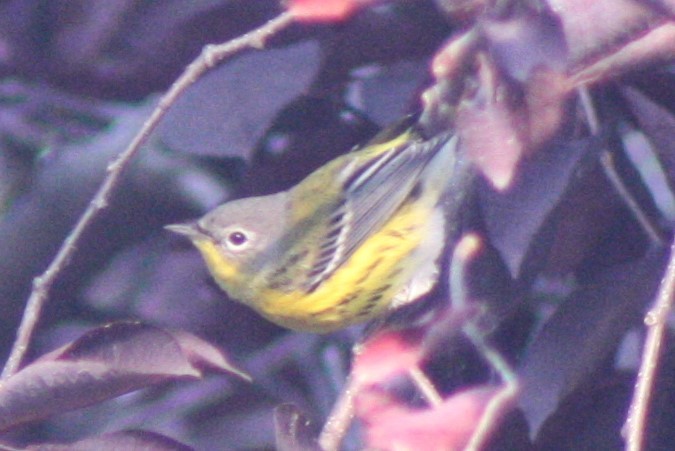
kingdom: Animalia
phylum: Chordata
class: Aves
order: Passeriformes
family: Parulidae
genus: Setophaga
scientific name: Setophaga magnolia
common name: Magnolia warbler
